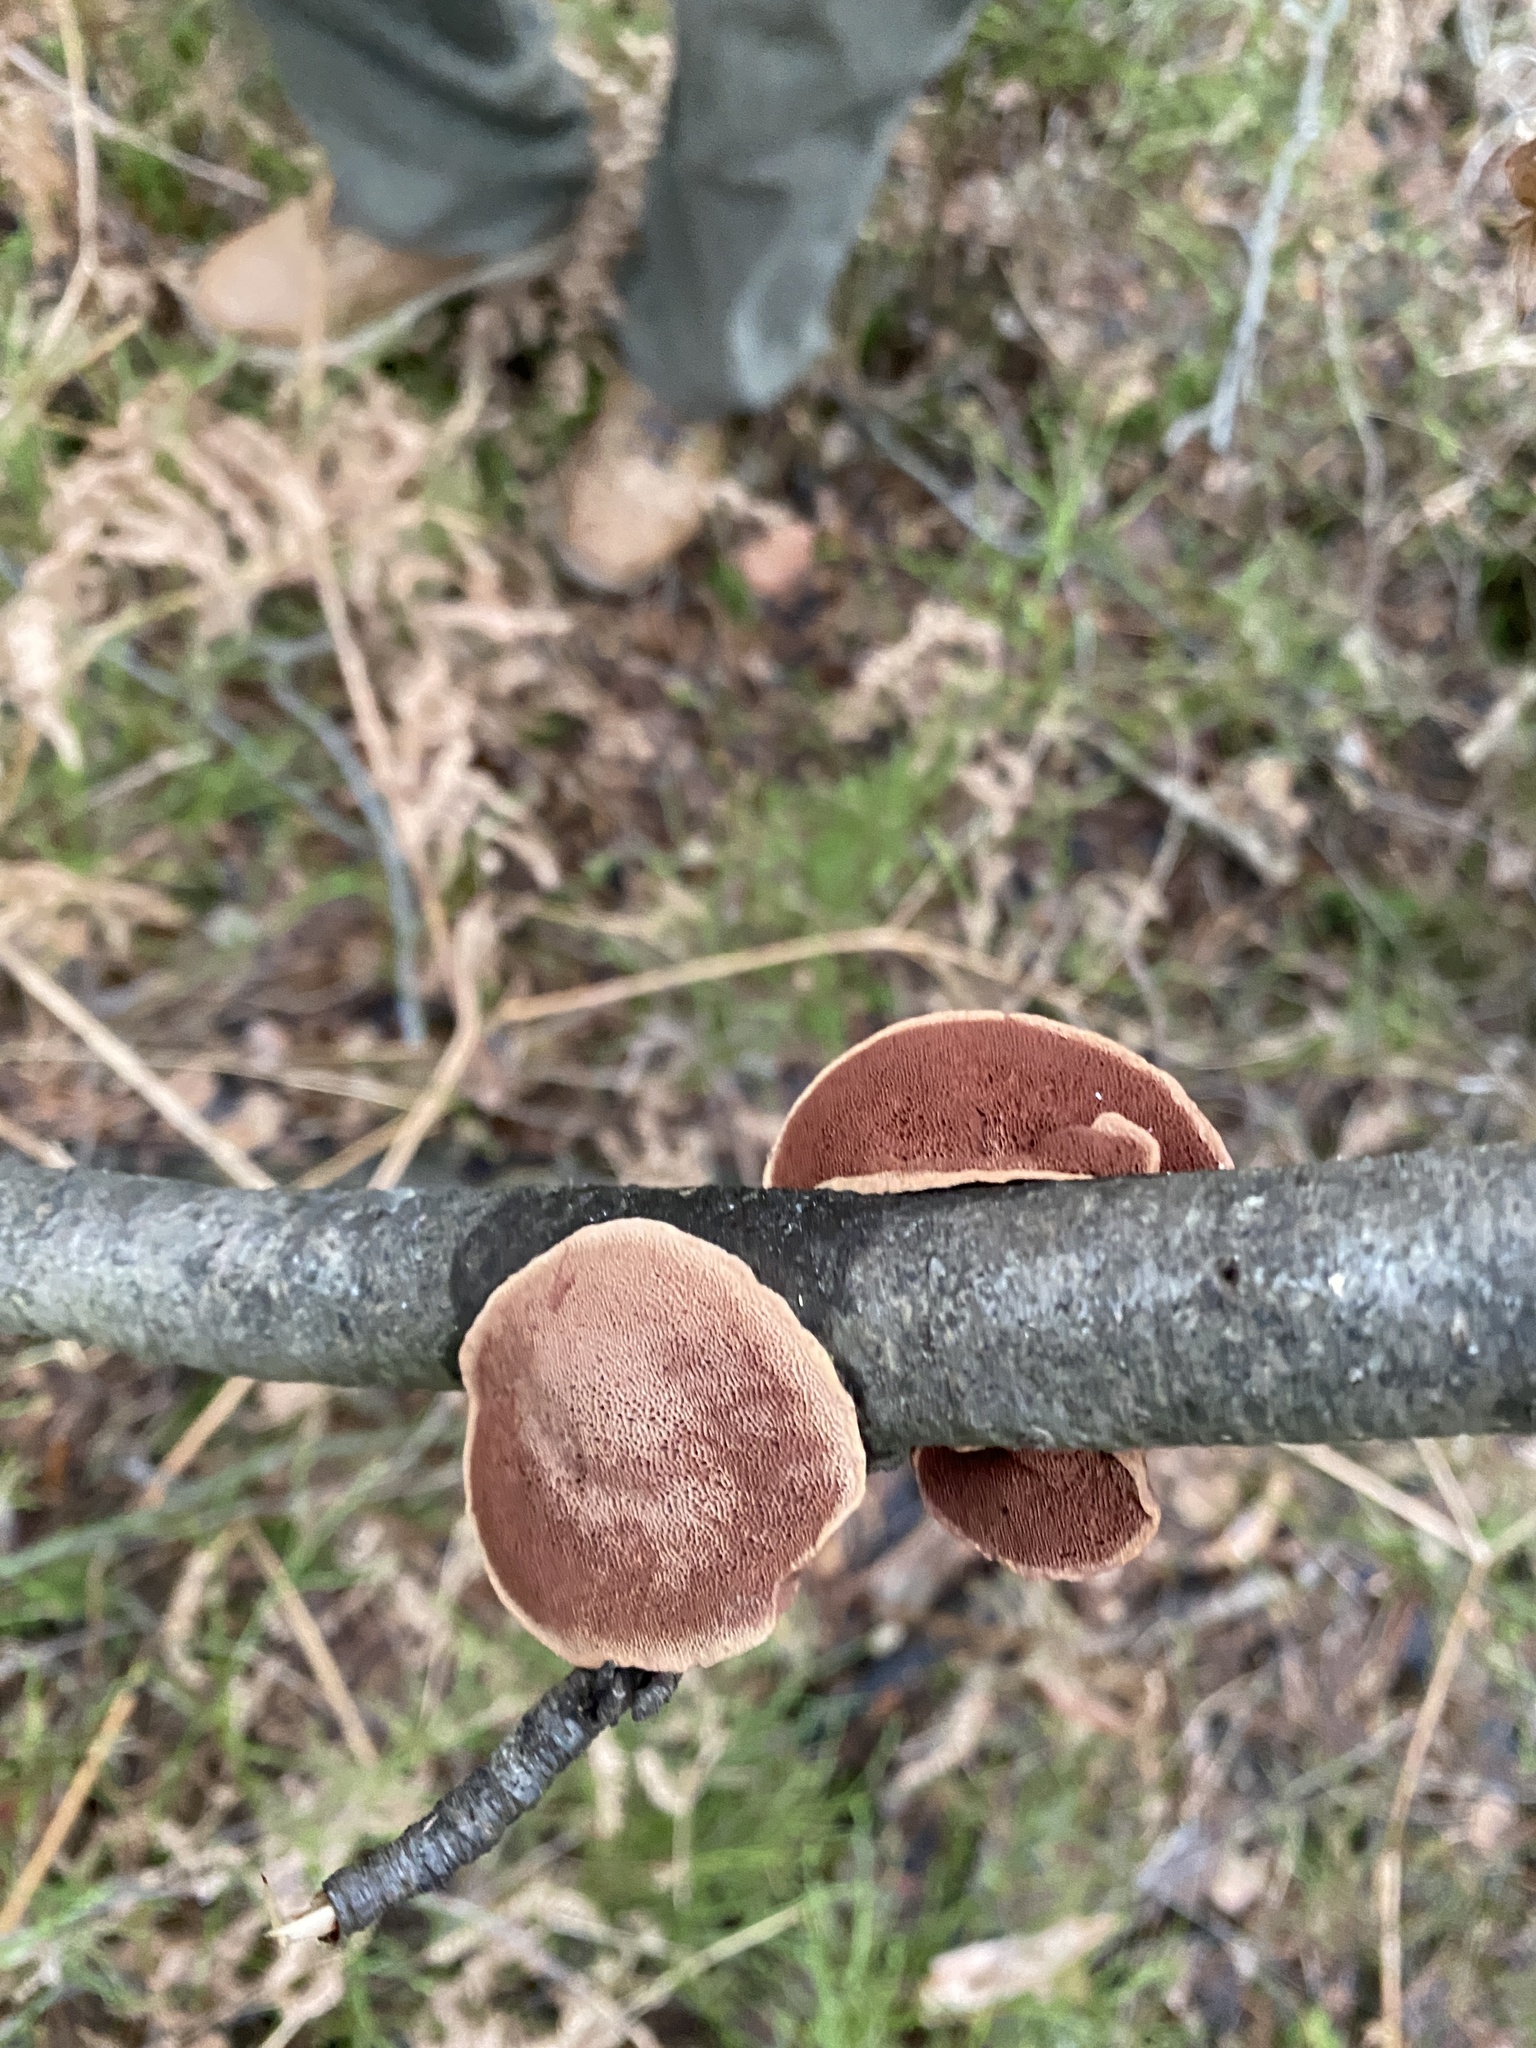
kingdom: Fungi
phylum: Basidiomycota
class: Agaricomycetes
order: Polyporales
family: Phanerochaetaceae
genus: Hapalopilus
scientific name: Hapalopilus rutilans
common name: Tender nesting polypore
